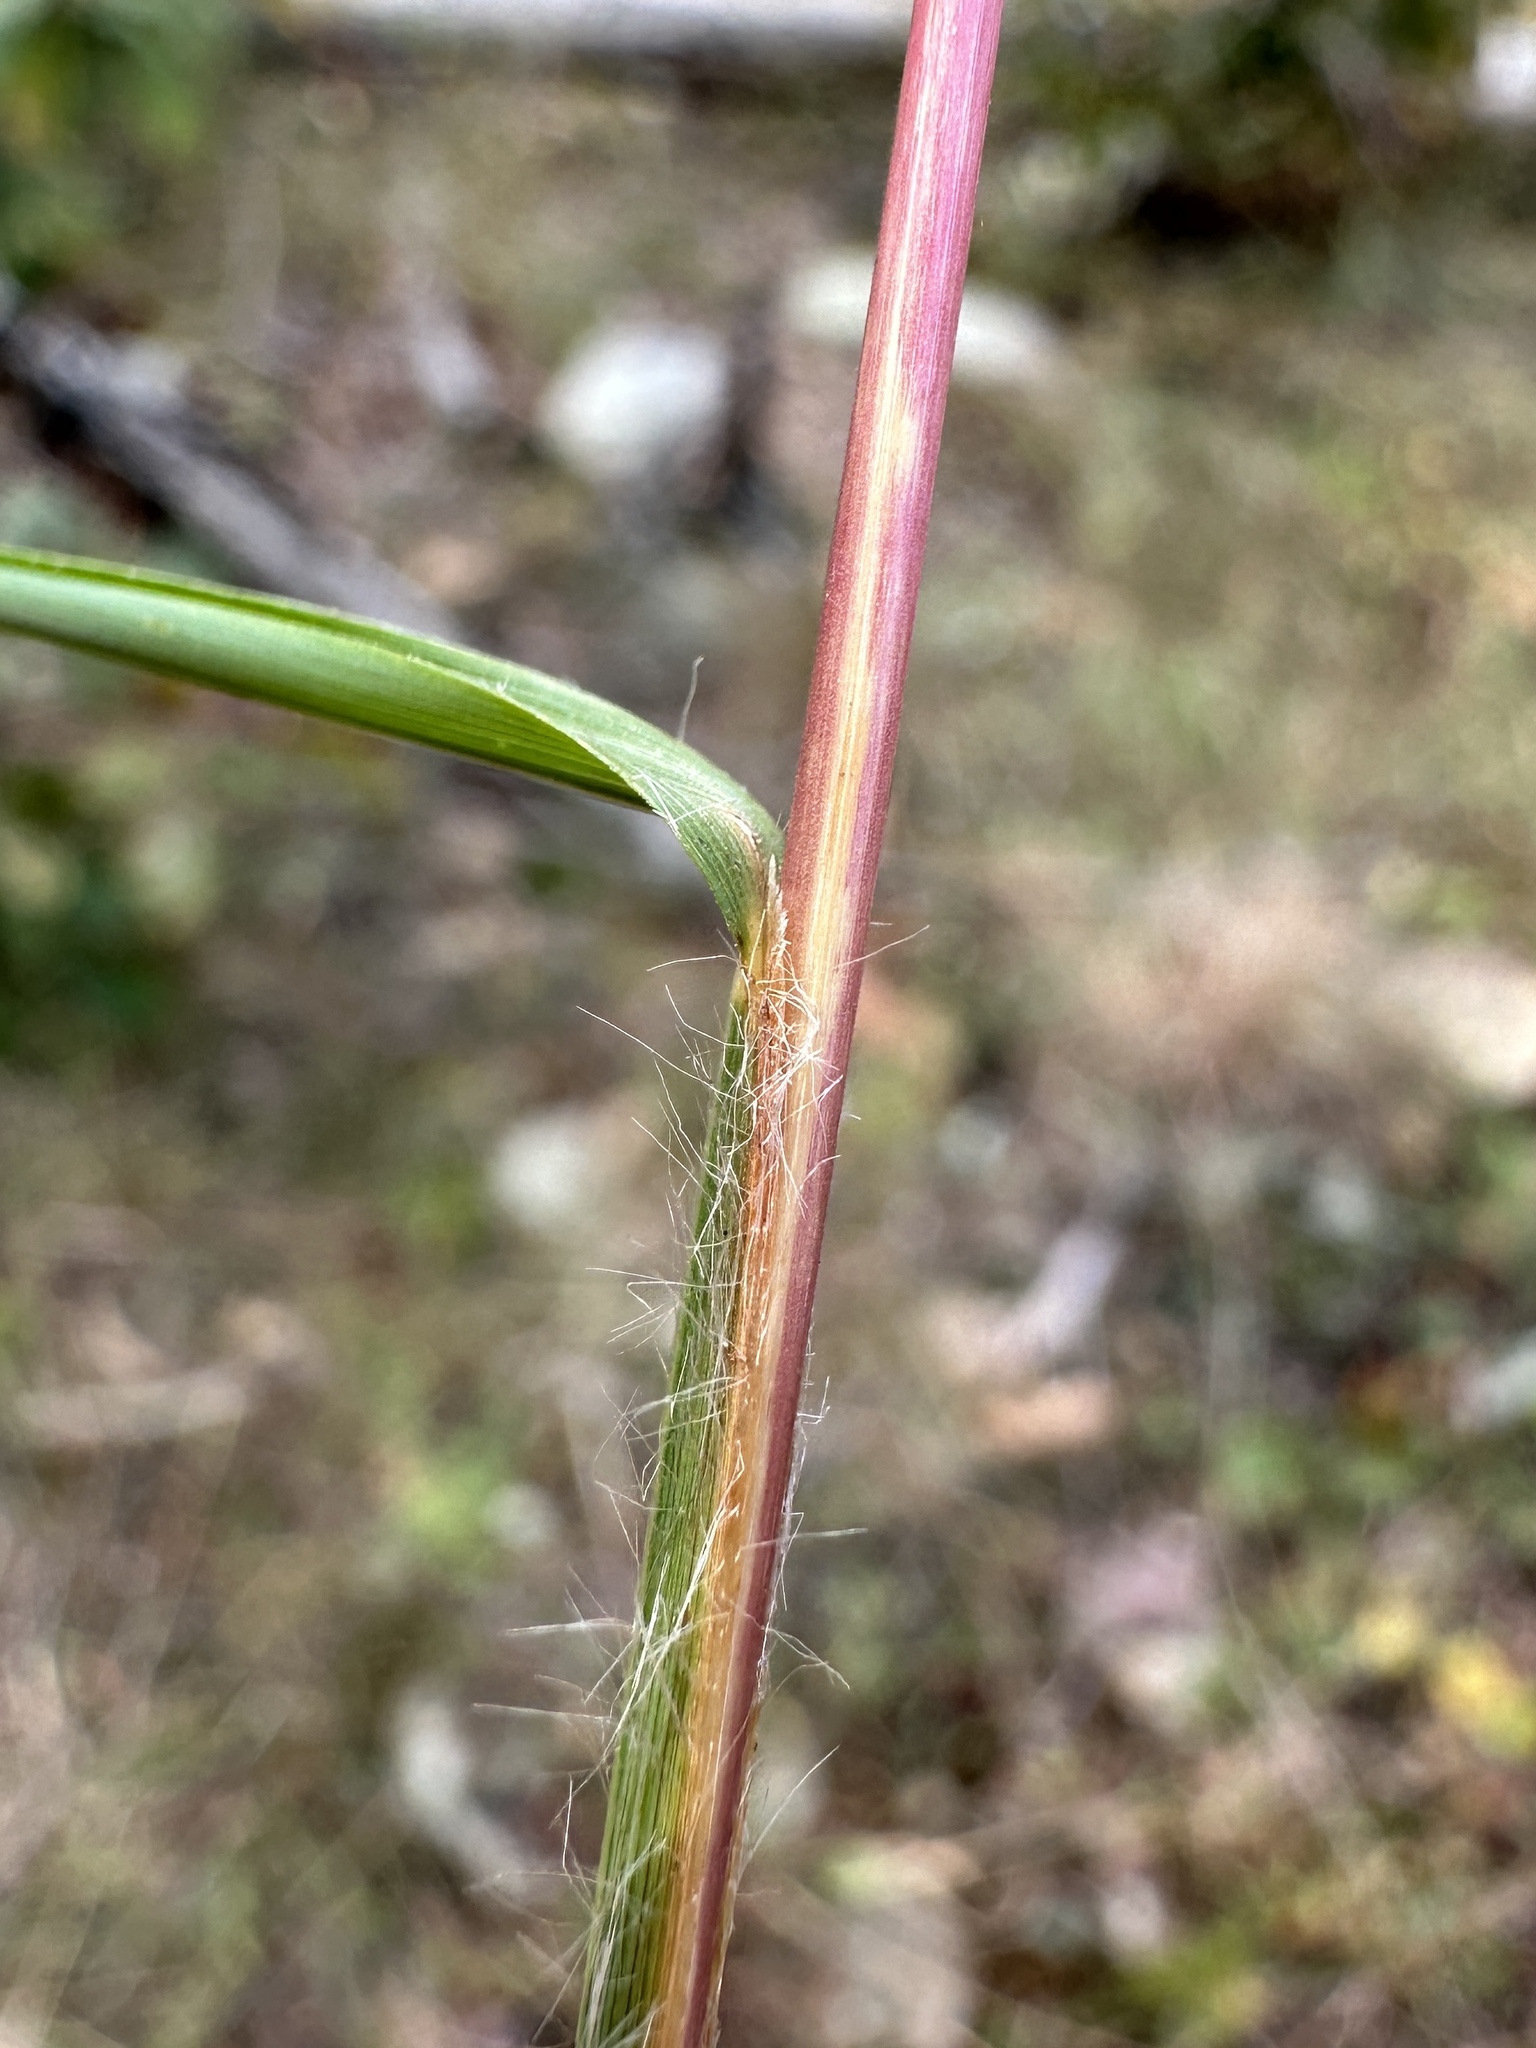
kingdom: Plantae
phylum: Tracheophyta
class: Liliopsida
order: Poales
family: Poaceae
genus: Schizachyrium
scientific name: Schizachyrium scoparium
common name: Little bluestem
